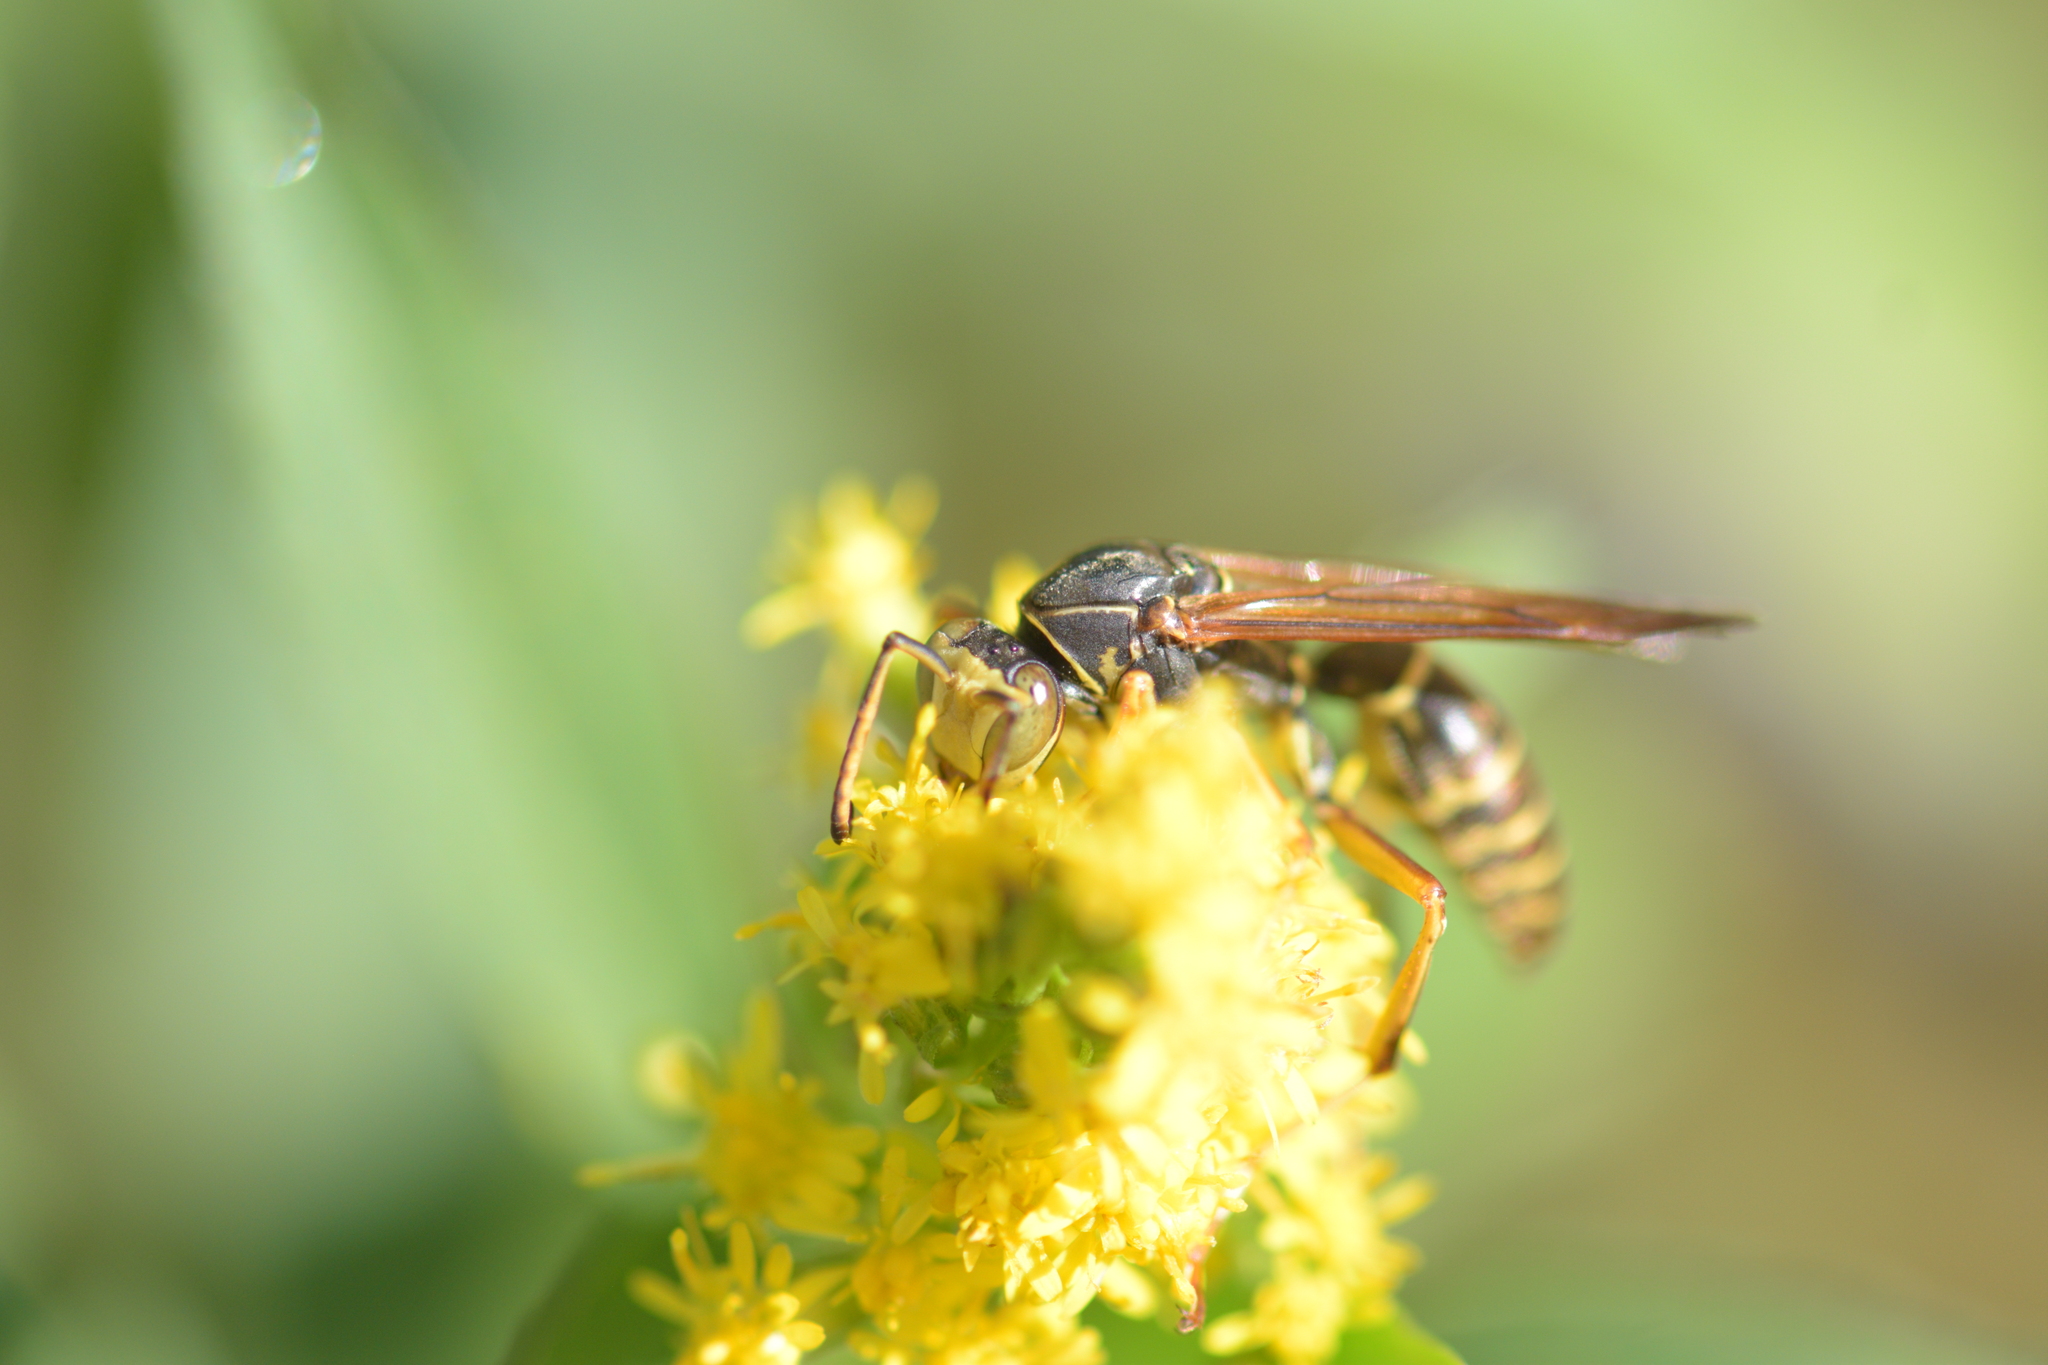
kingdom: Animalia
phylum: Arthropoda
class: Insecta
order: Hymenoptera
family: Eumenidae
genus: Polistes
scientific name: Polistes fuscatus
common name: Dark paper wasp
